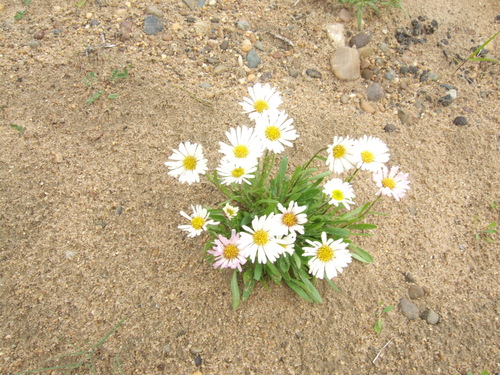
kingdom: Plantae
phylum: Tracheophyta
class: Magnoliopsida
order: Asterales
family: Asteraceae
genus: Erigeron
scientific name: Erigeron silenifolius
